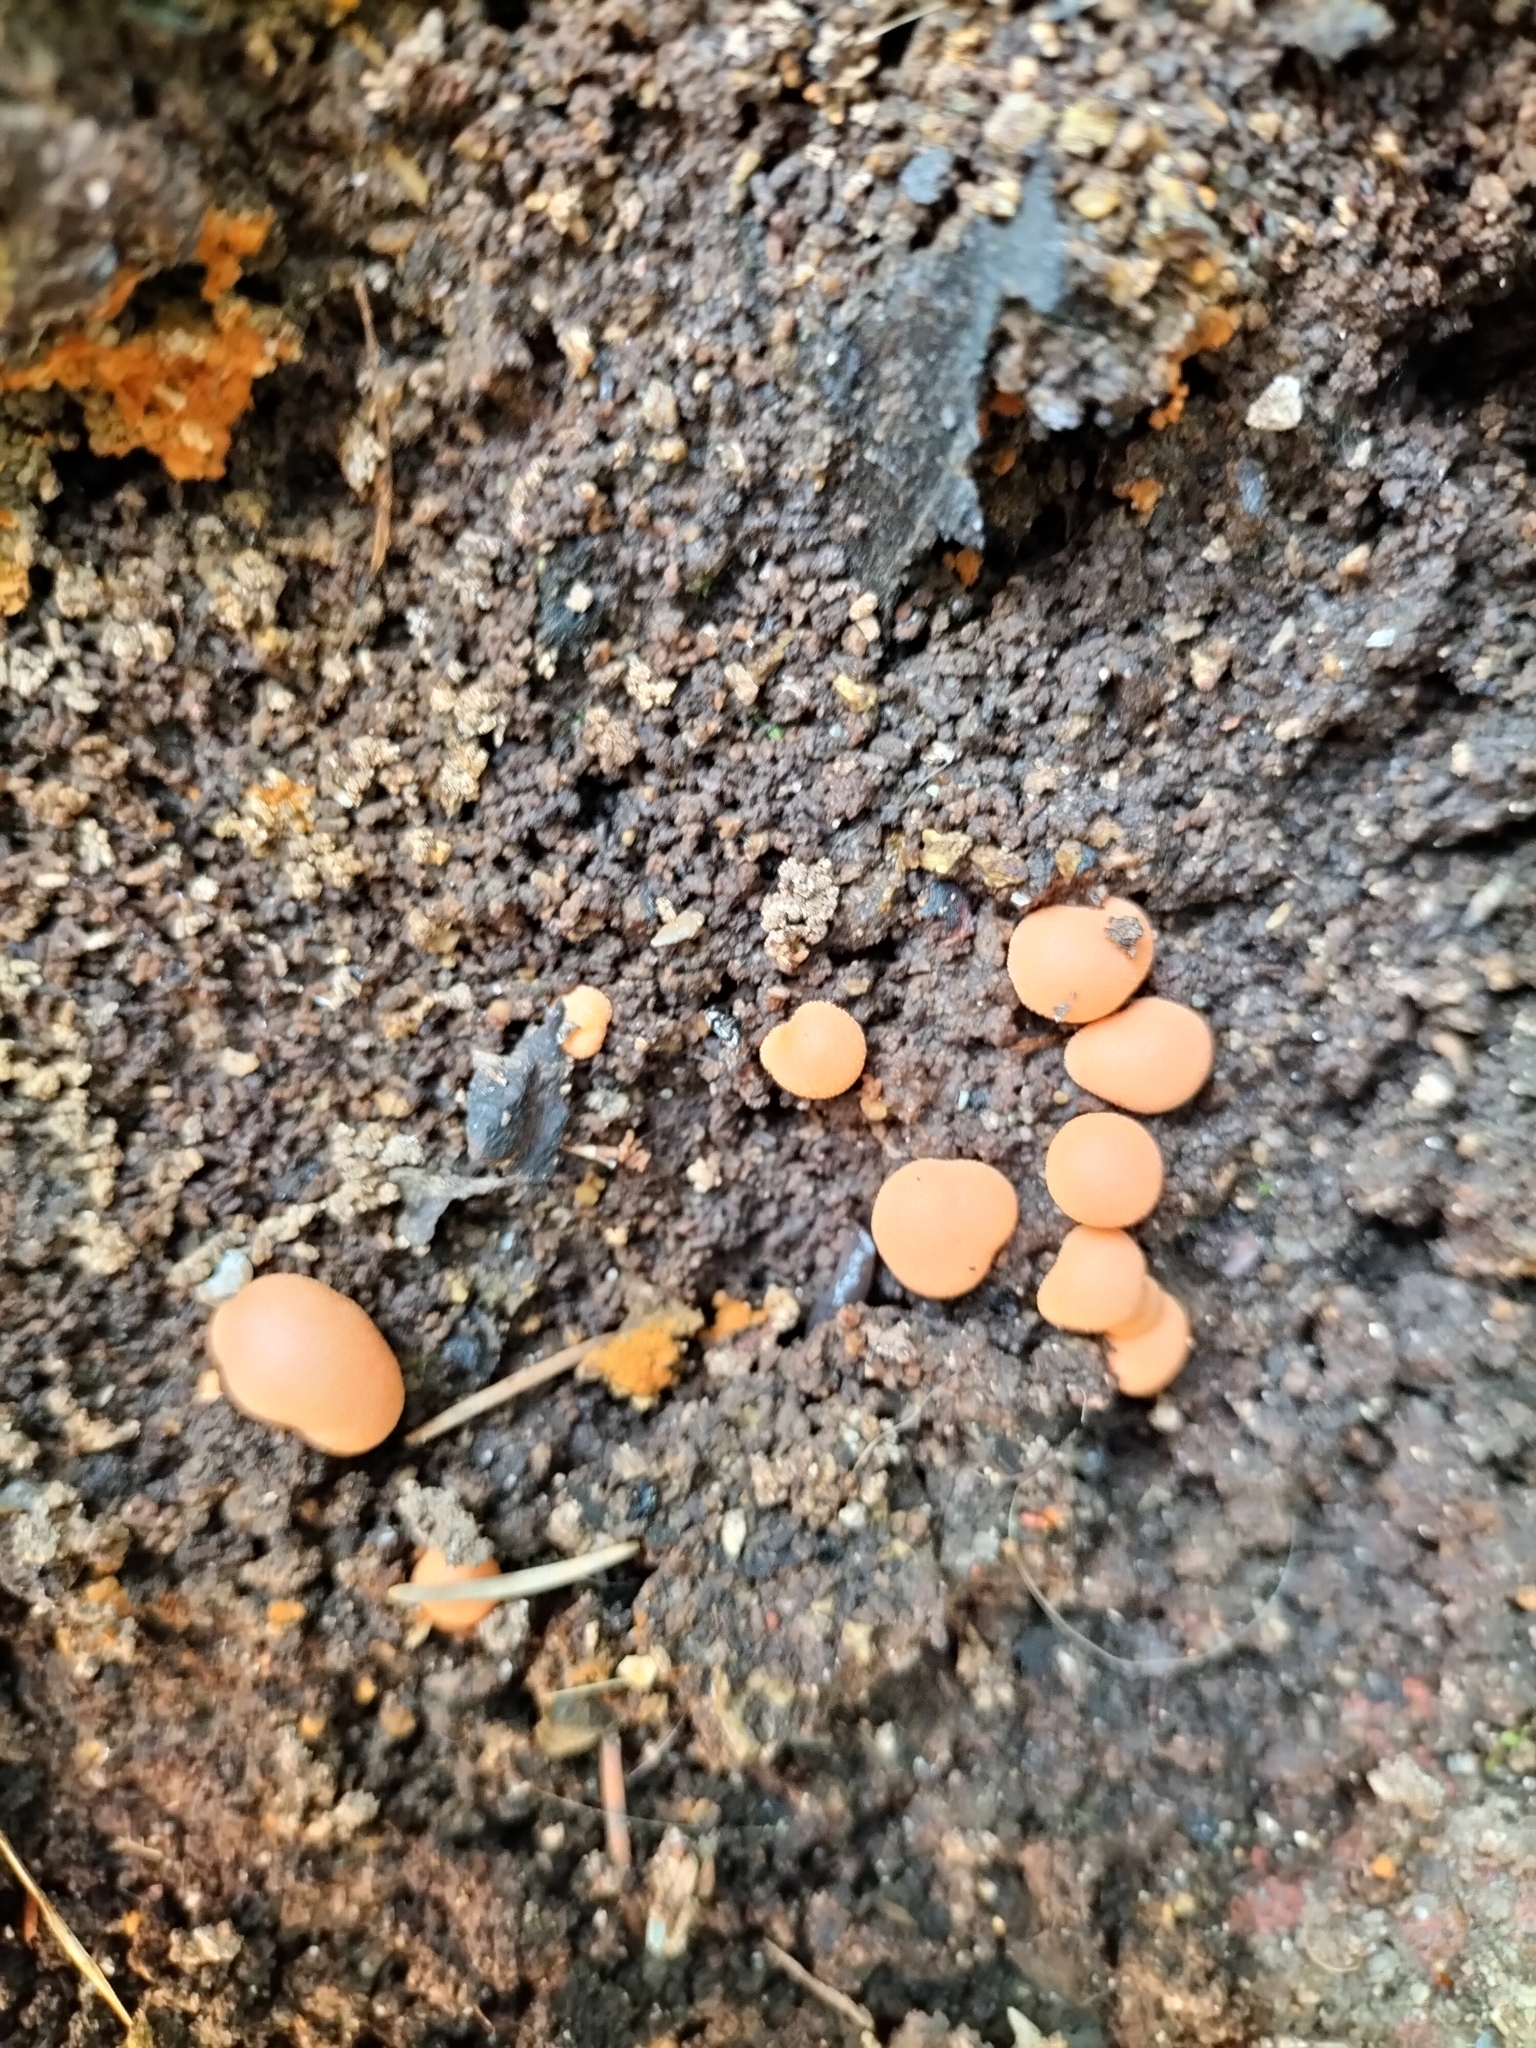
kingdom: Protozoa
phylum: Mycetozoa
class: Myxomycetes
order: Cribrariales
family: Tubiferaceae
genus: Lycogala
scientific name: Lycogala epidendrum
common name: Wolf's milk
